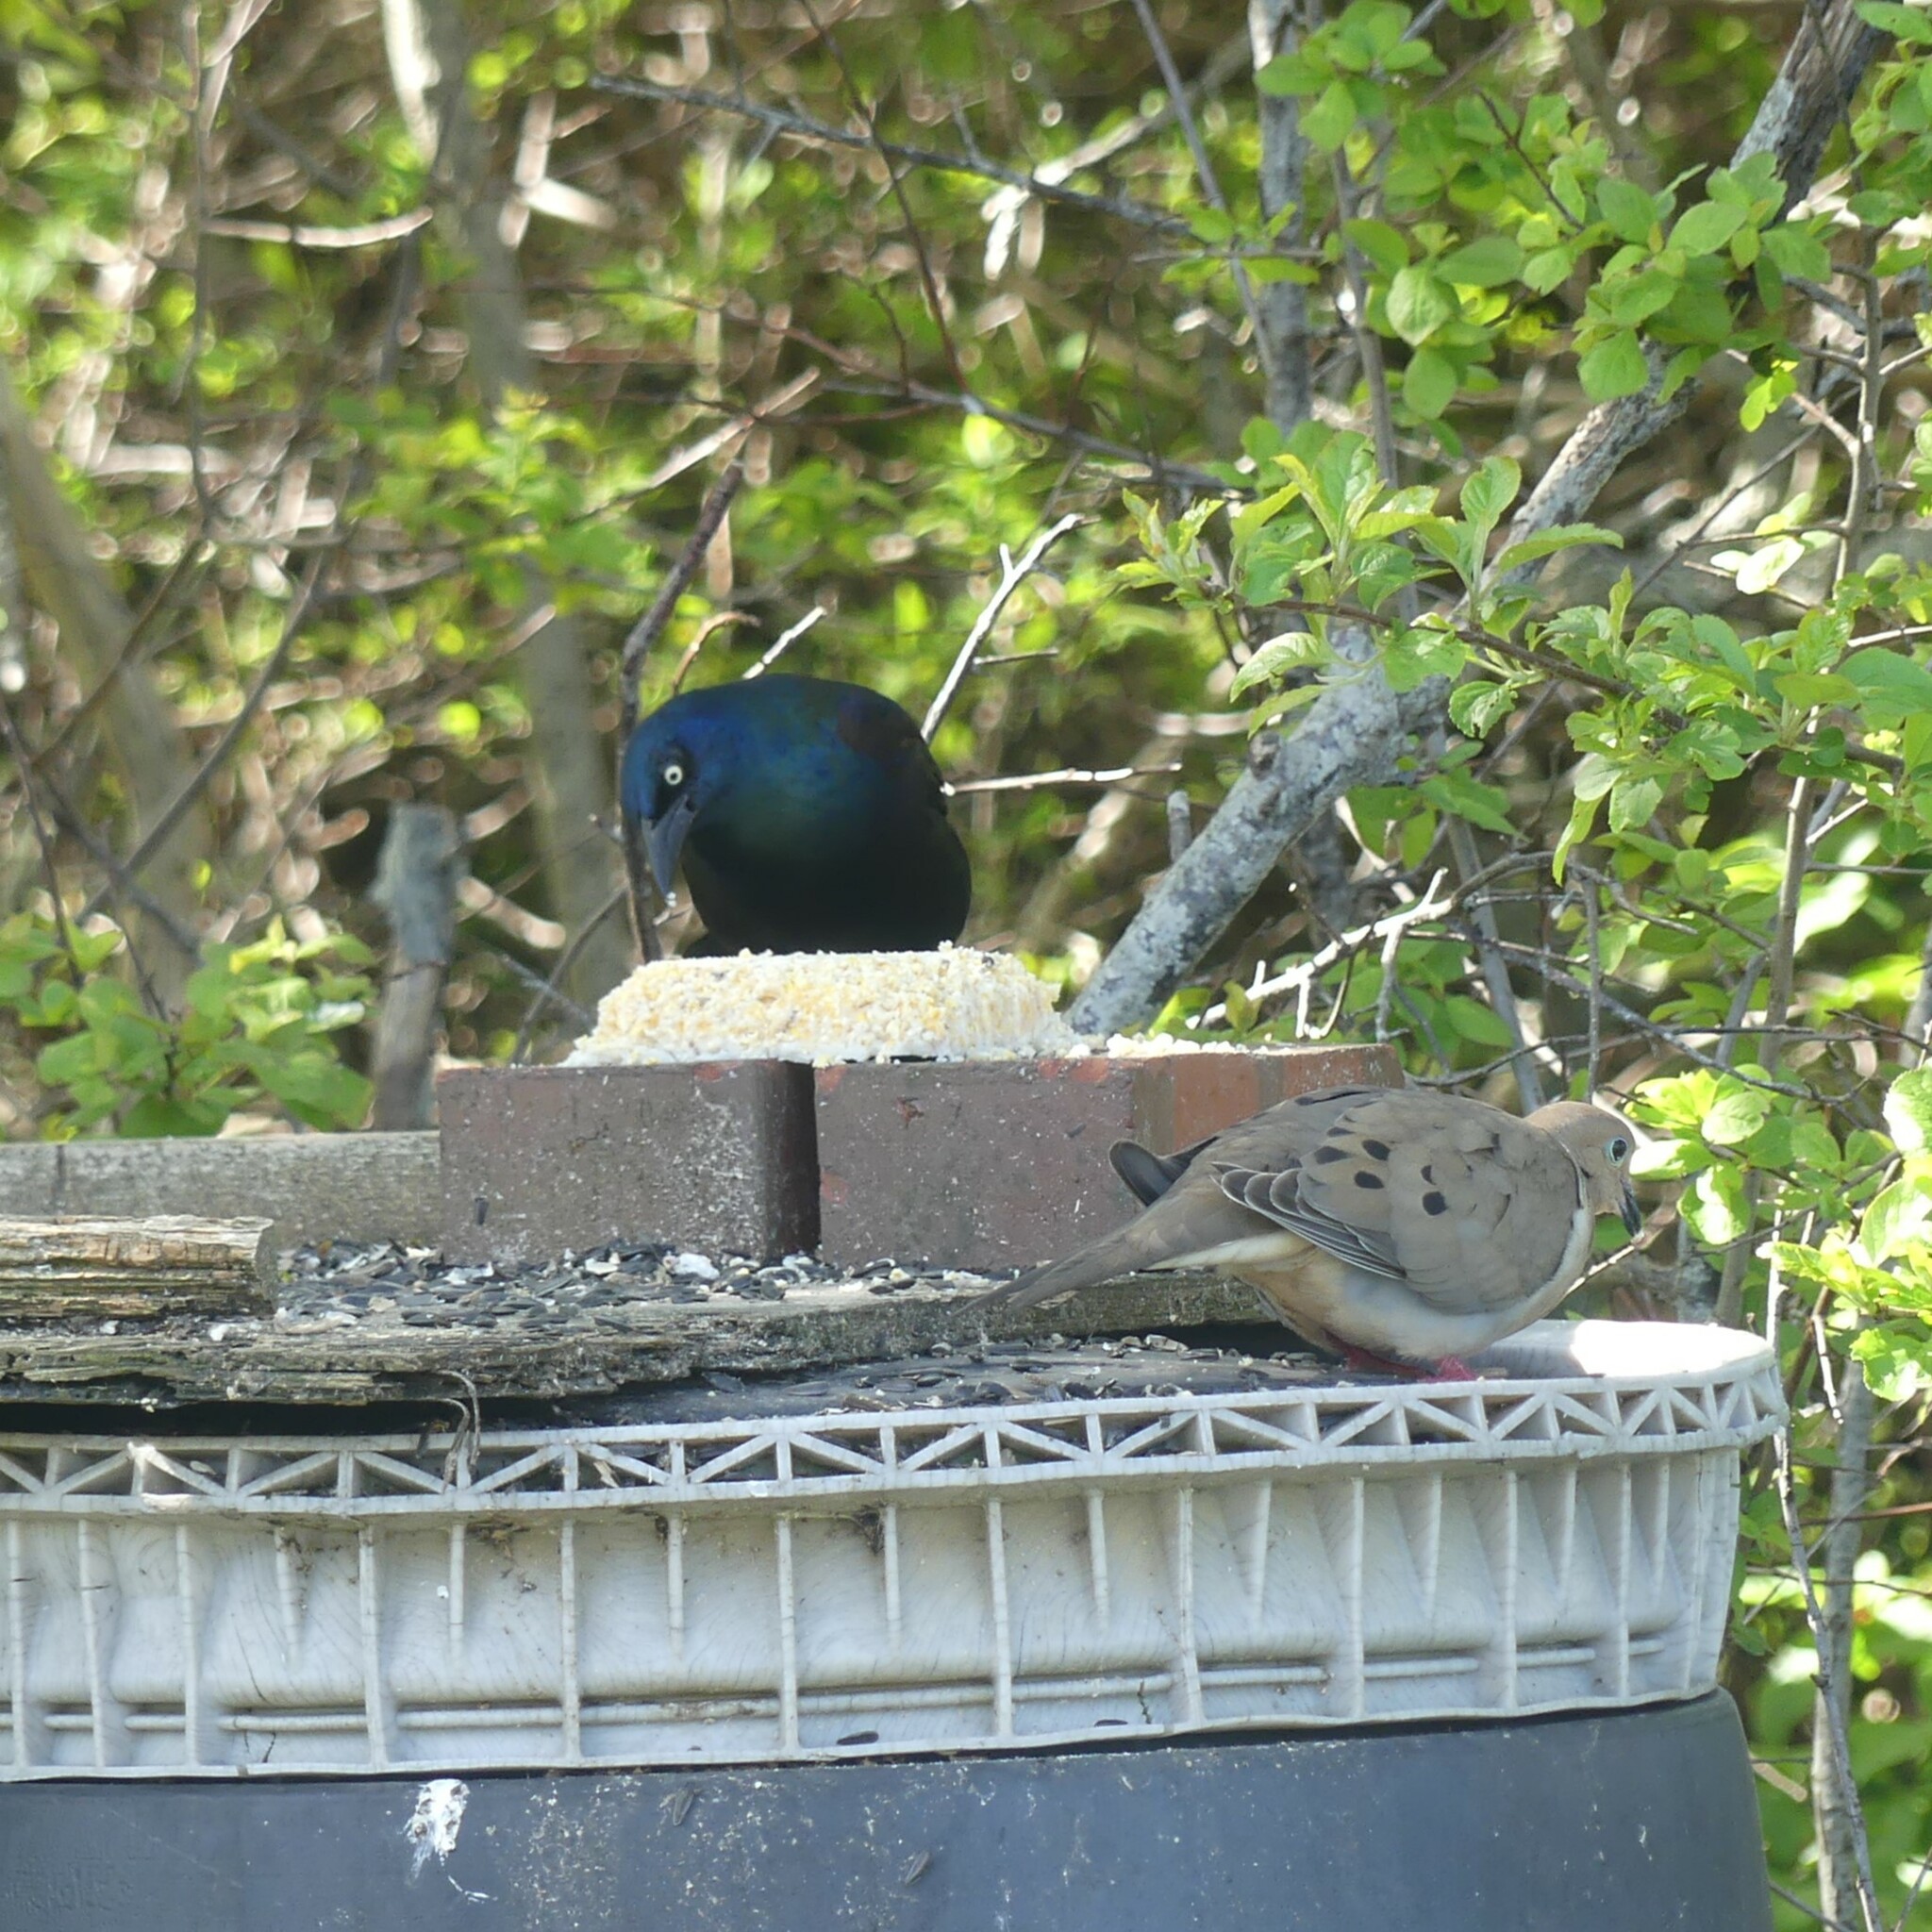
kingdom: Animalia
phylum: Chordata
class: Aves
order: Passeriformes
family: Icteridae
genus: Quiscalus
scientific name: Quiscalus quiscula
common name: Common grackle
